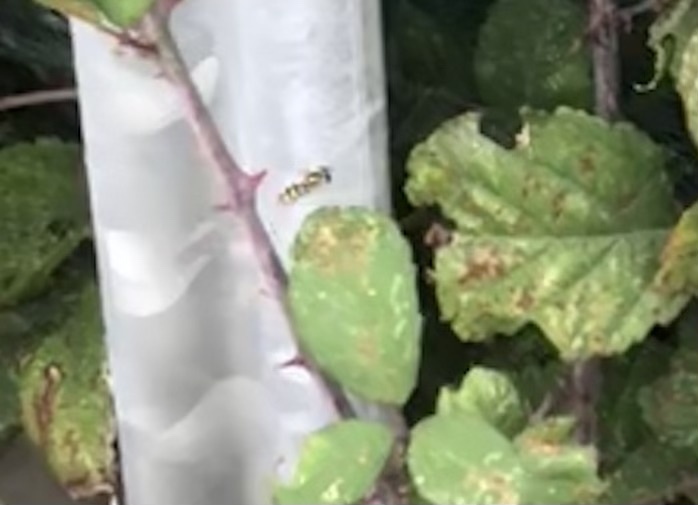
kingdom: Animalia
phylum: Arthropoda
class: Insecta
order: Diptera
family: Syrphidae
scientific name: Syrphidae
